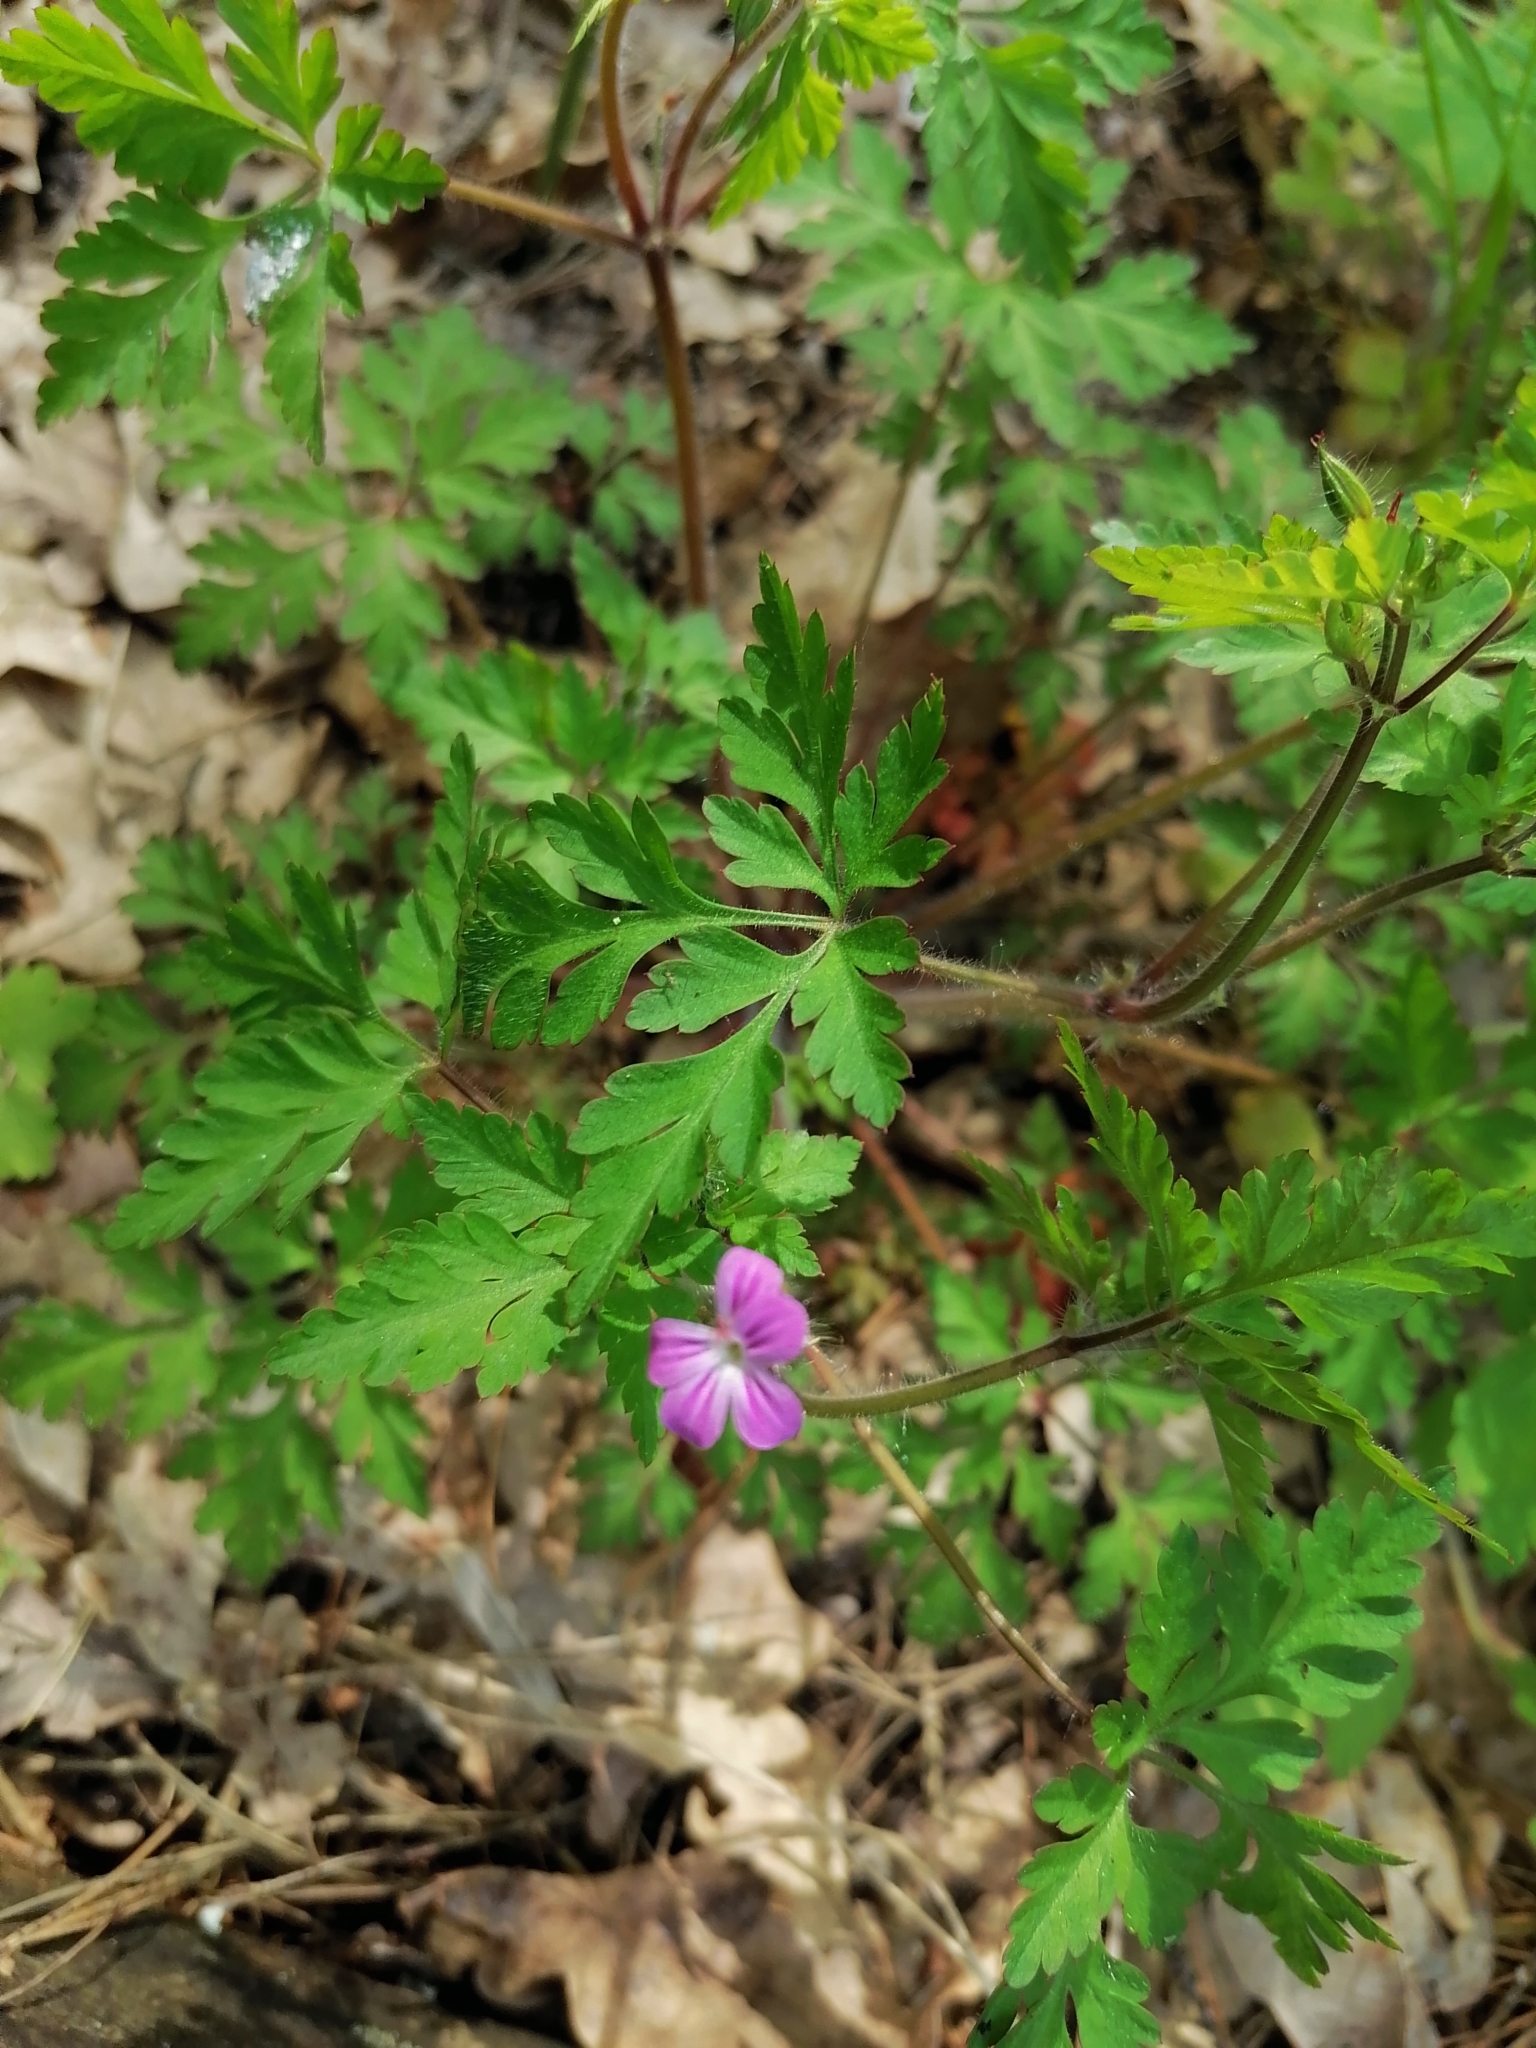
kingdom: Plantae
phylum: Tracheophyta
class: Magnoliopsida
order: Geraniales
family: Geraniaceae
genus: Geranium
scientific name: Geranium robertianum
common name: Herb-robert
